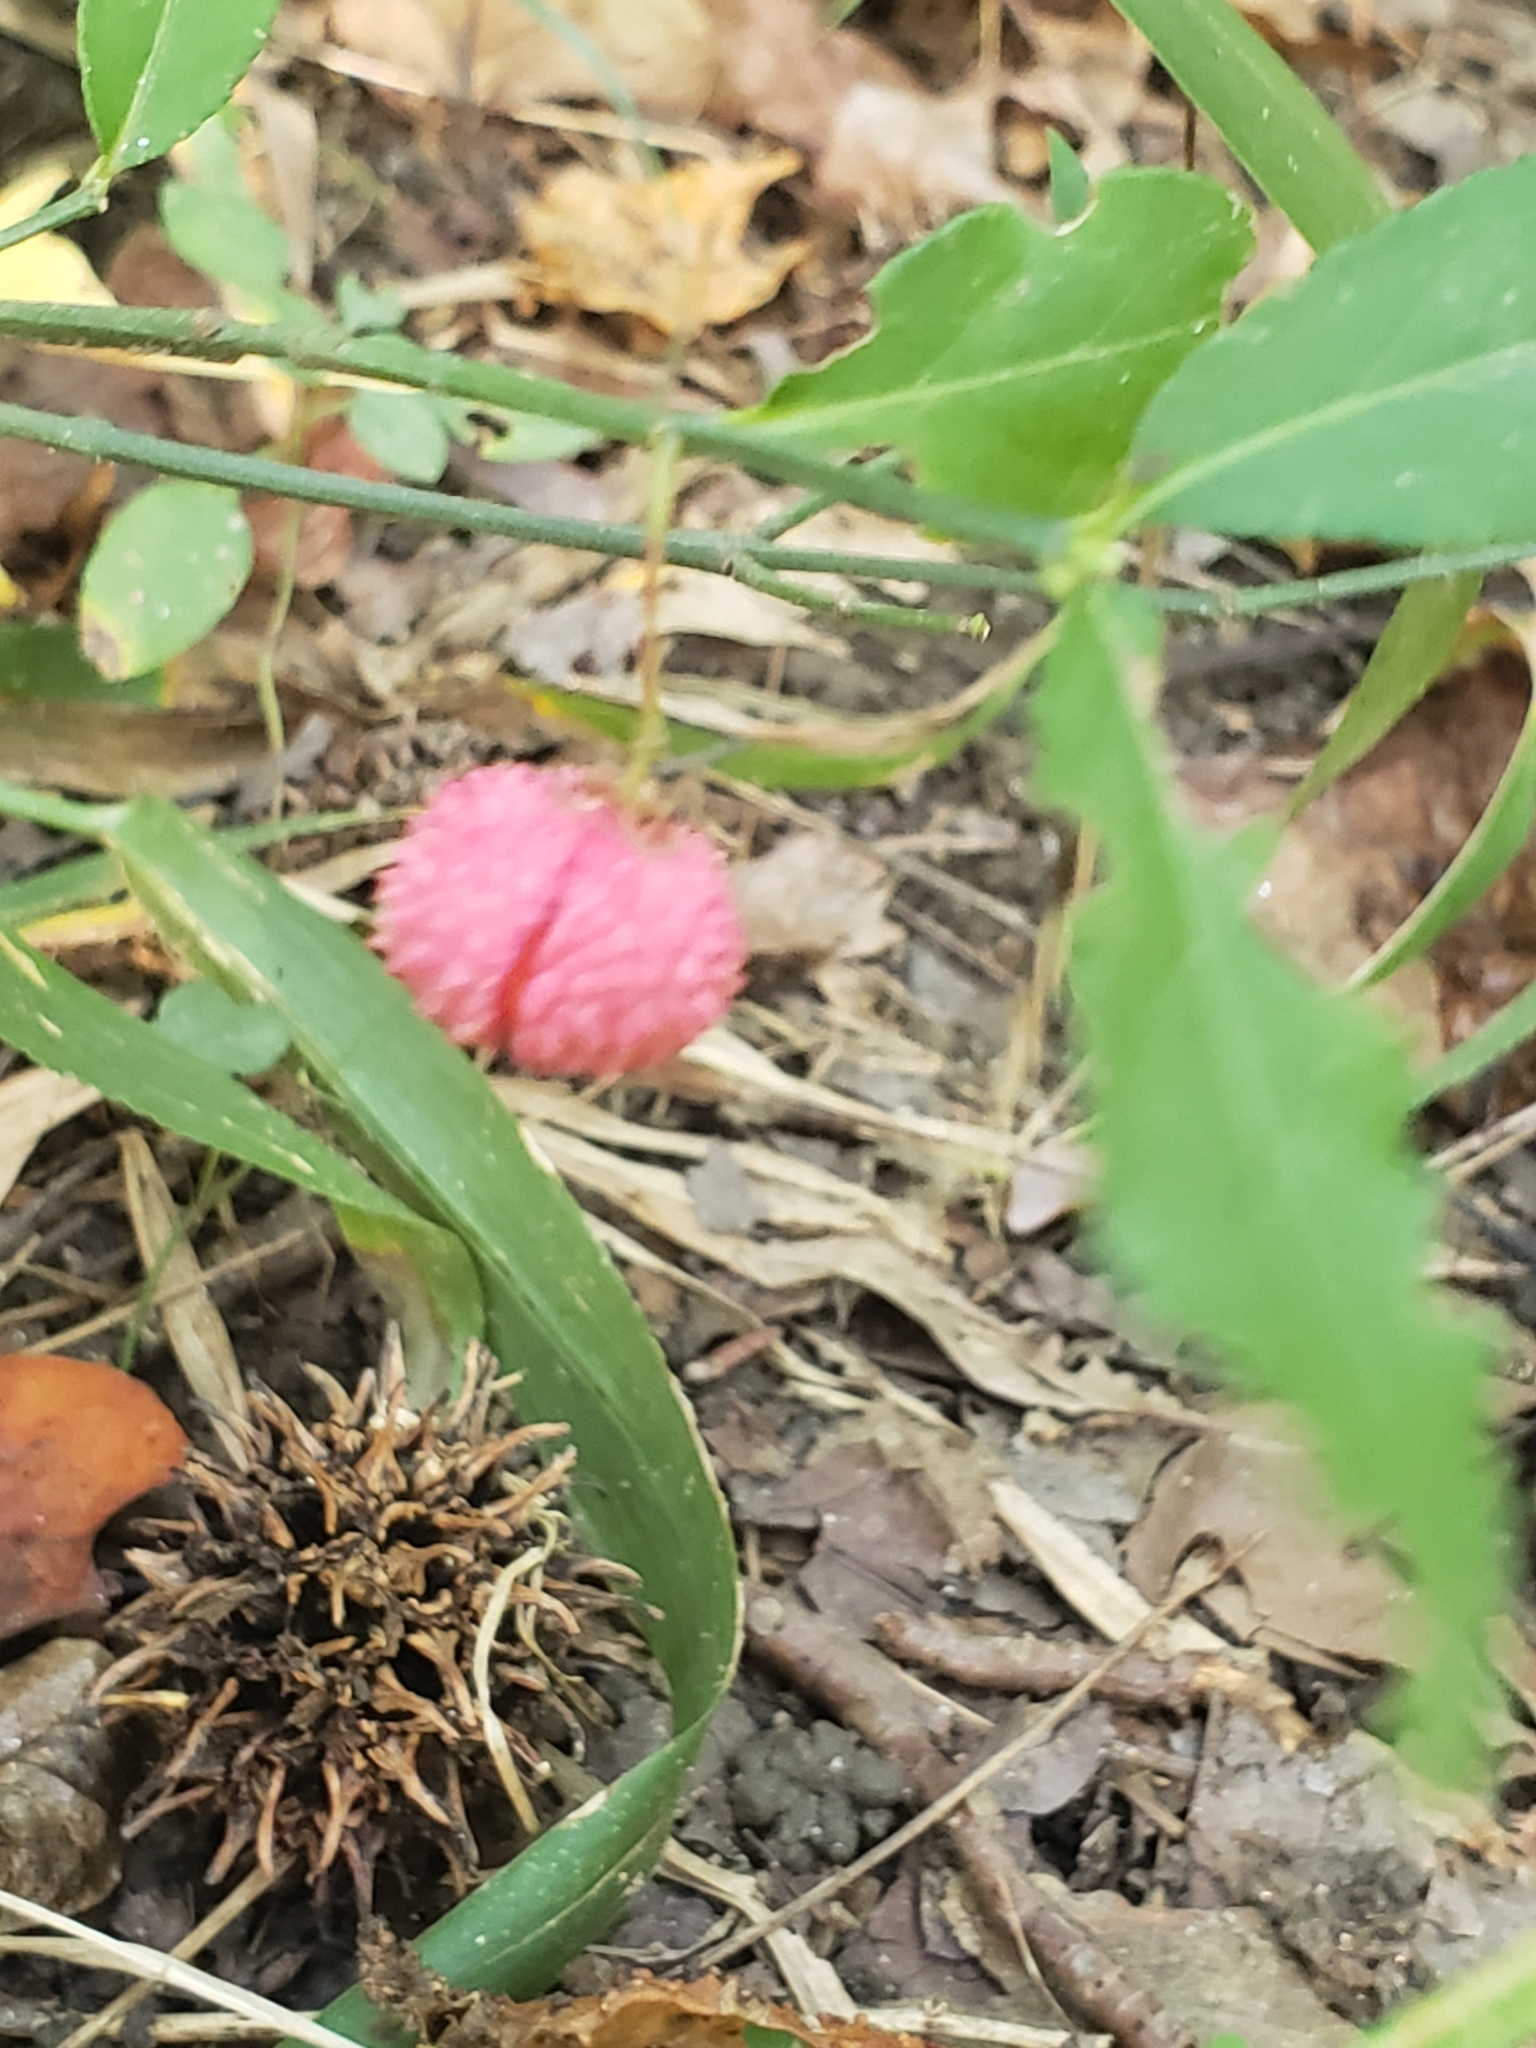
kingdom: Plantae
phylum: Tracheophyta
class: Magnoliopsida
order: Celastrales
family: Celastraceae
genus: Euonymus
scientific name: Euonymus americanus
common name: Bursting-heart
